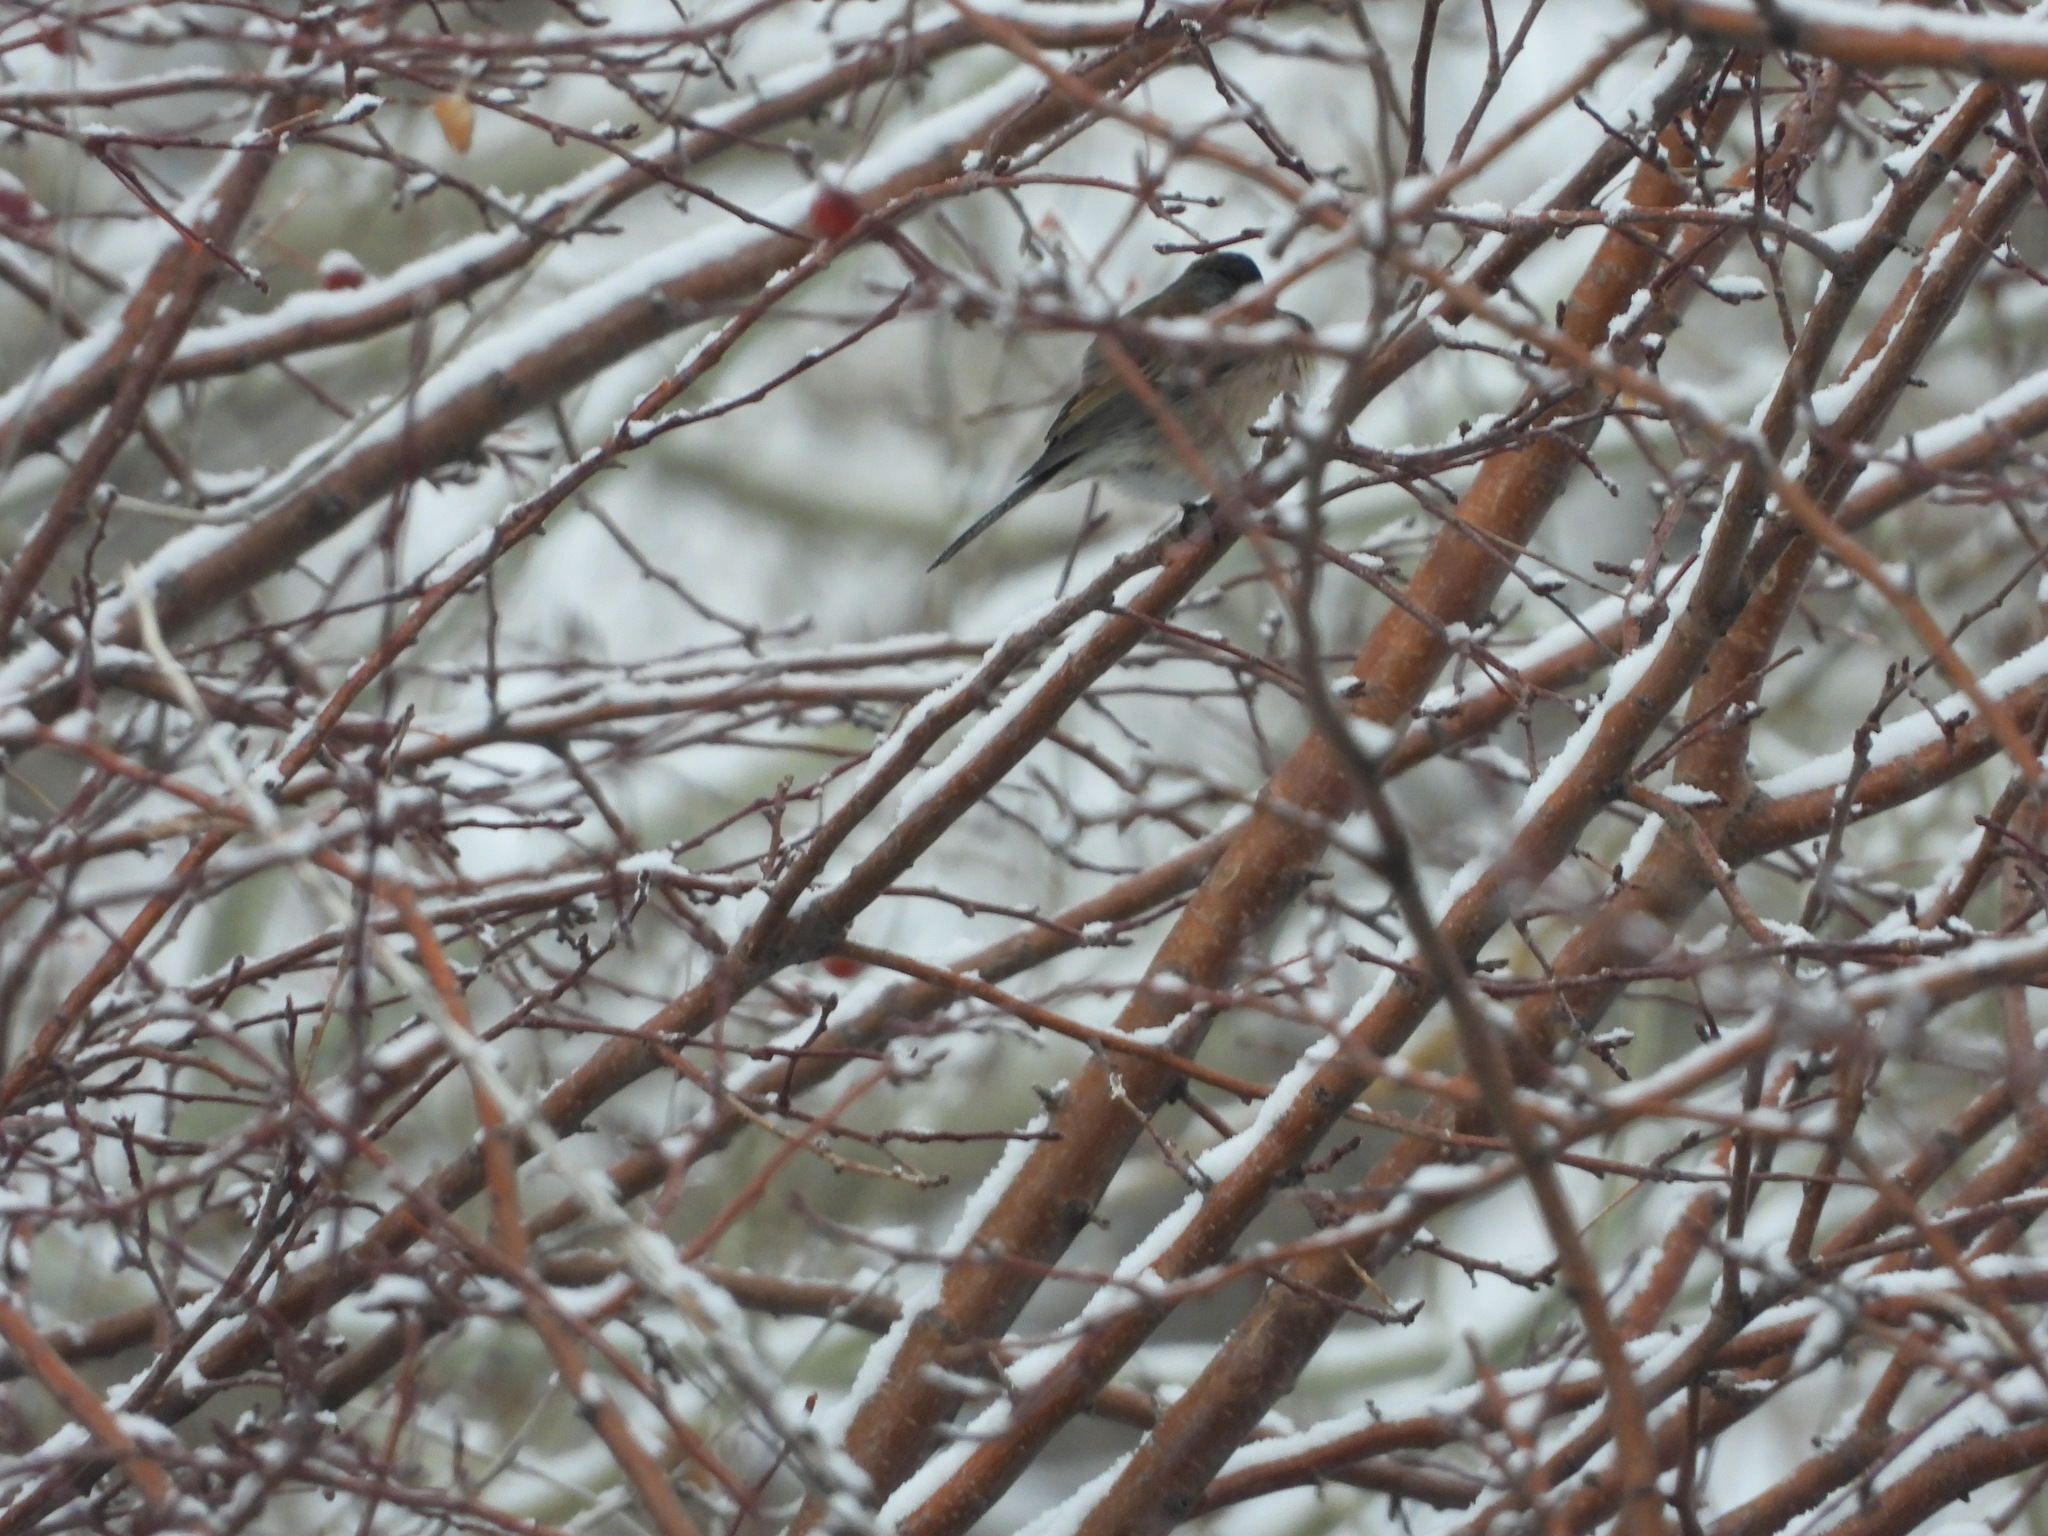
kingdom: Animalia
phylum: Chordata
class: Aves
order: Passeriformes
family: Passerellidae
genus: Junco
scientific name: Junco hyemalis
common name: Dark-eyed junco
